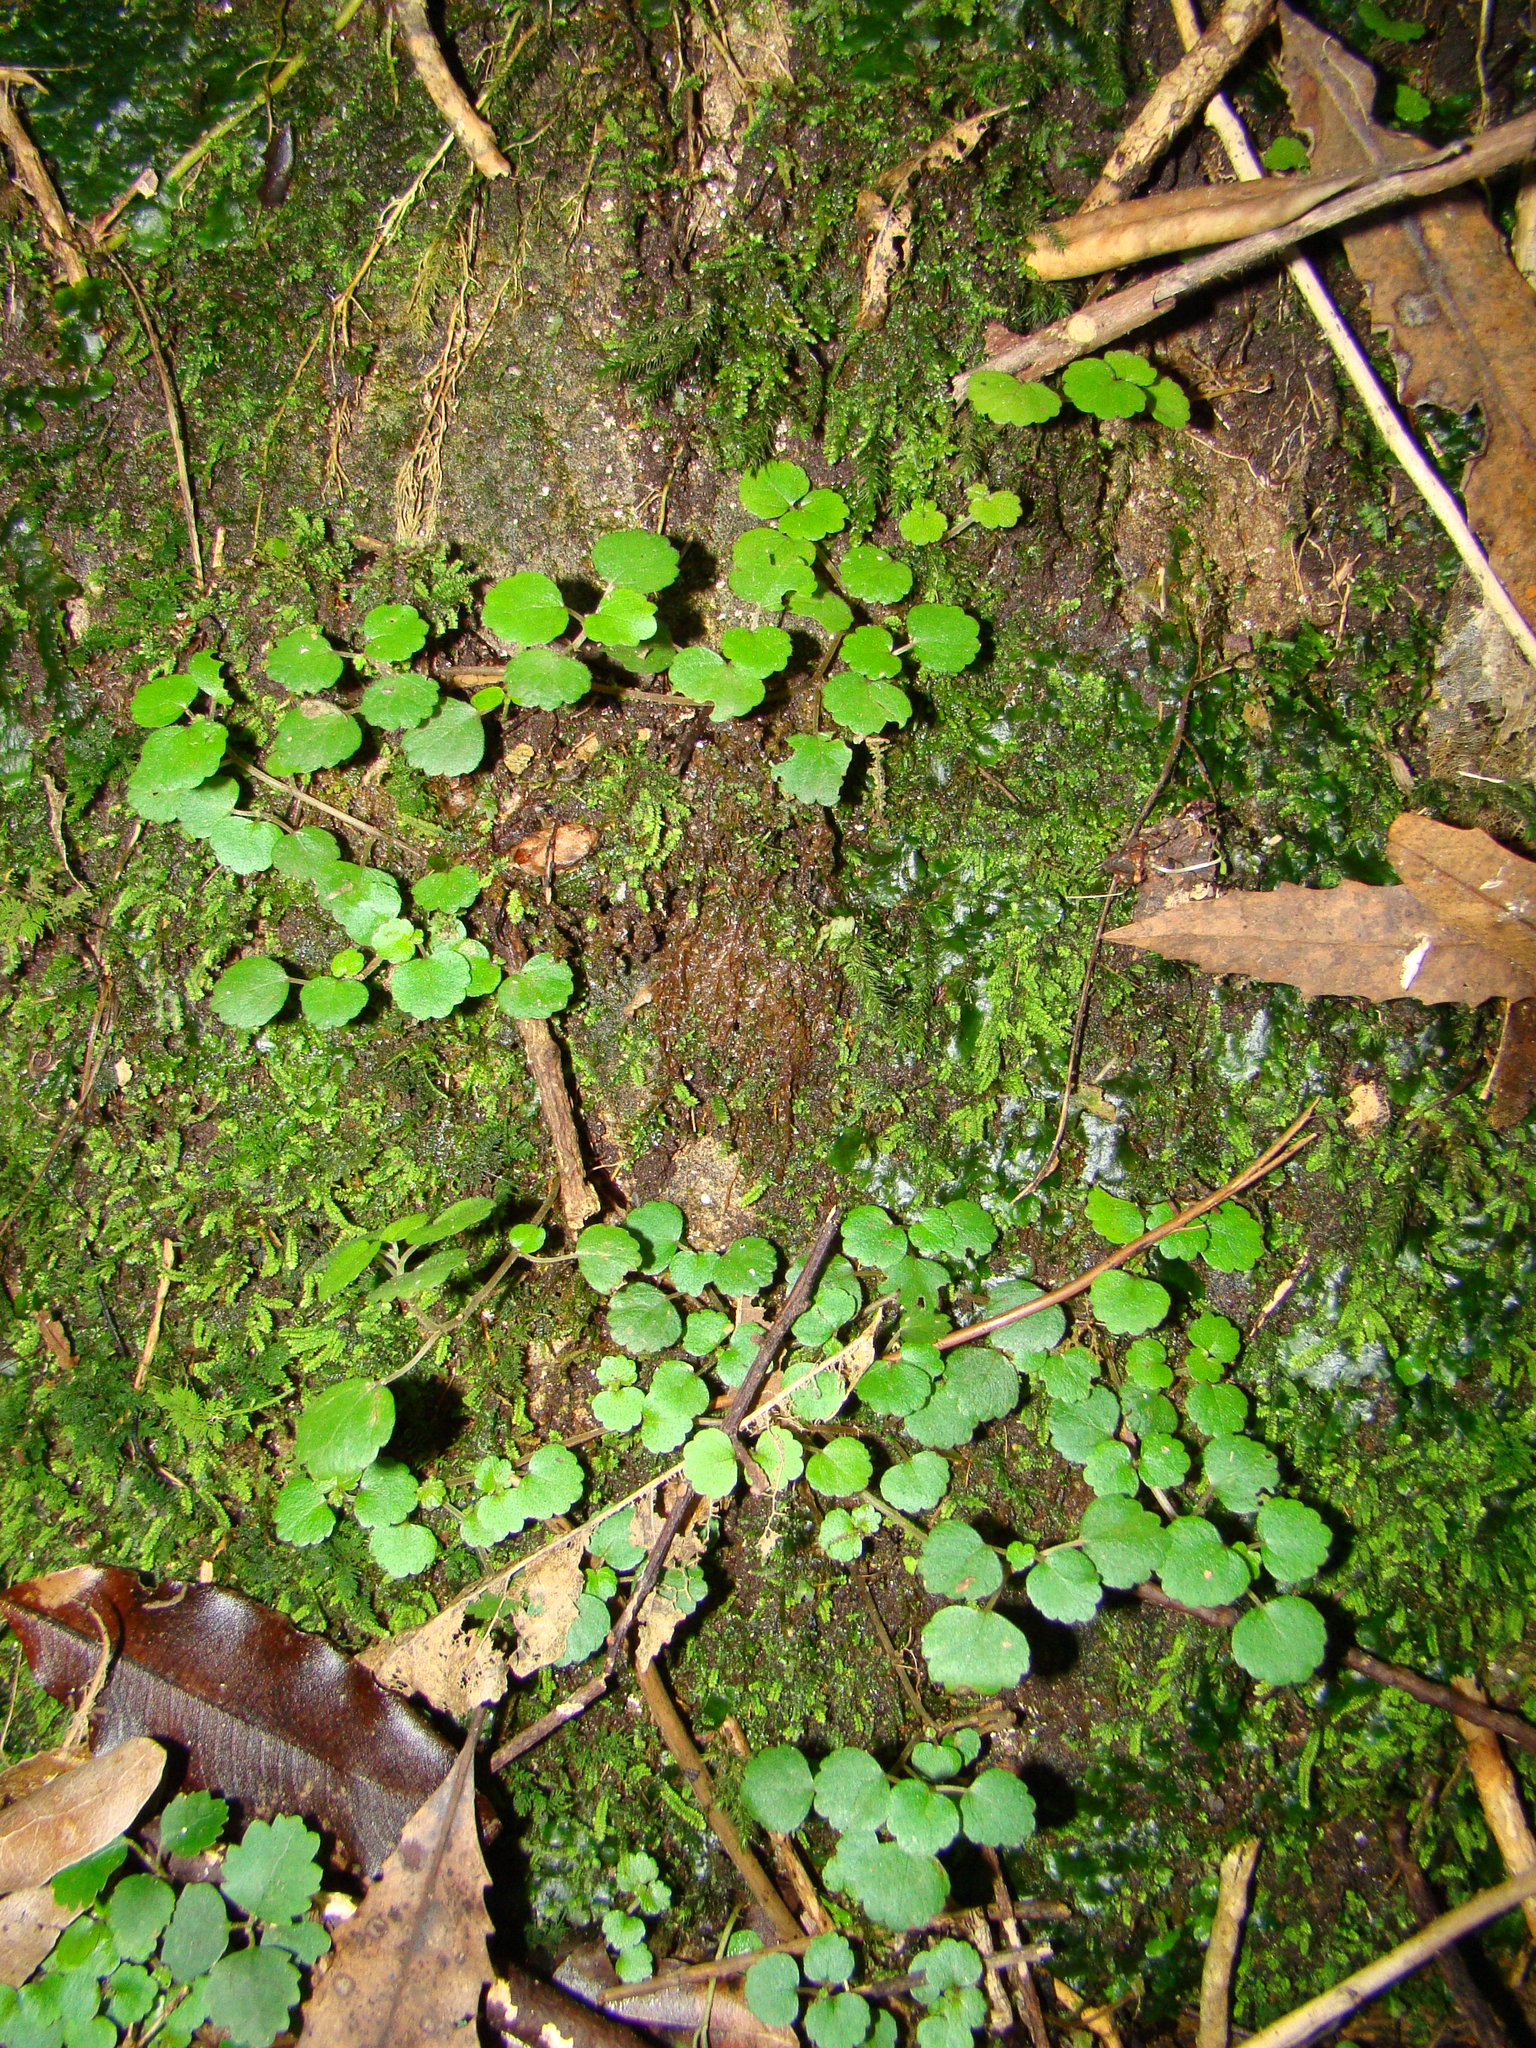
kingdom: Plantae
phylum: Tracheophyta
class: Magnoliopsida
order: Rosales
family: Urticaceae
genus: Australina
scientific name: Australina pusilla
